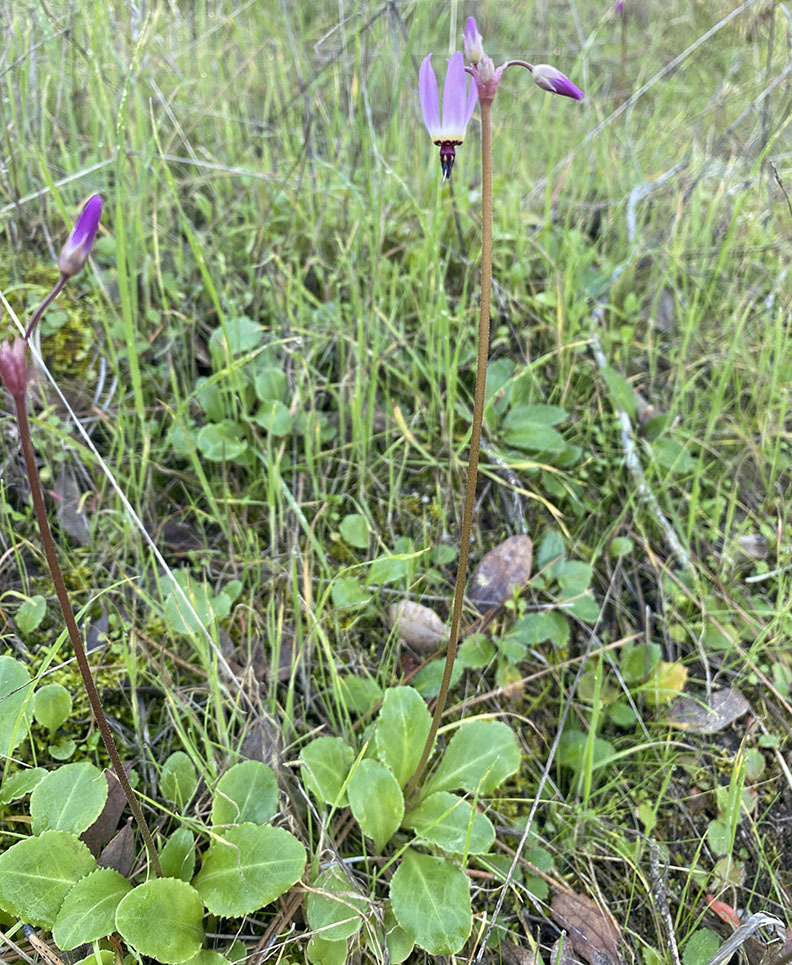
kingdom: Plantae
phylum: Tracheophyta
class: Magnoliopsida
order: Ericales
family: Primulaceae
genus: Dodecatheon
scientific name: Dodecatheon hendersonii
